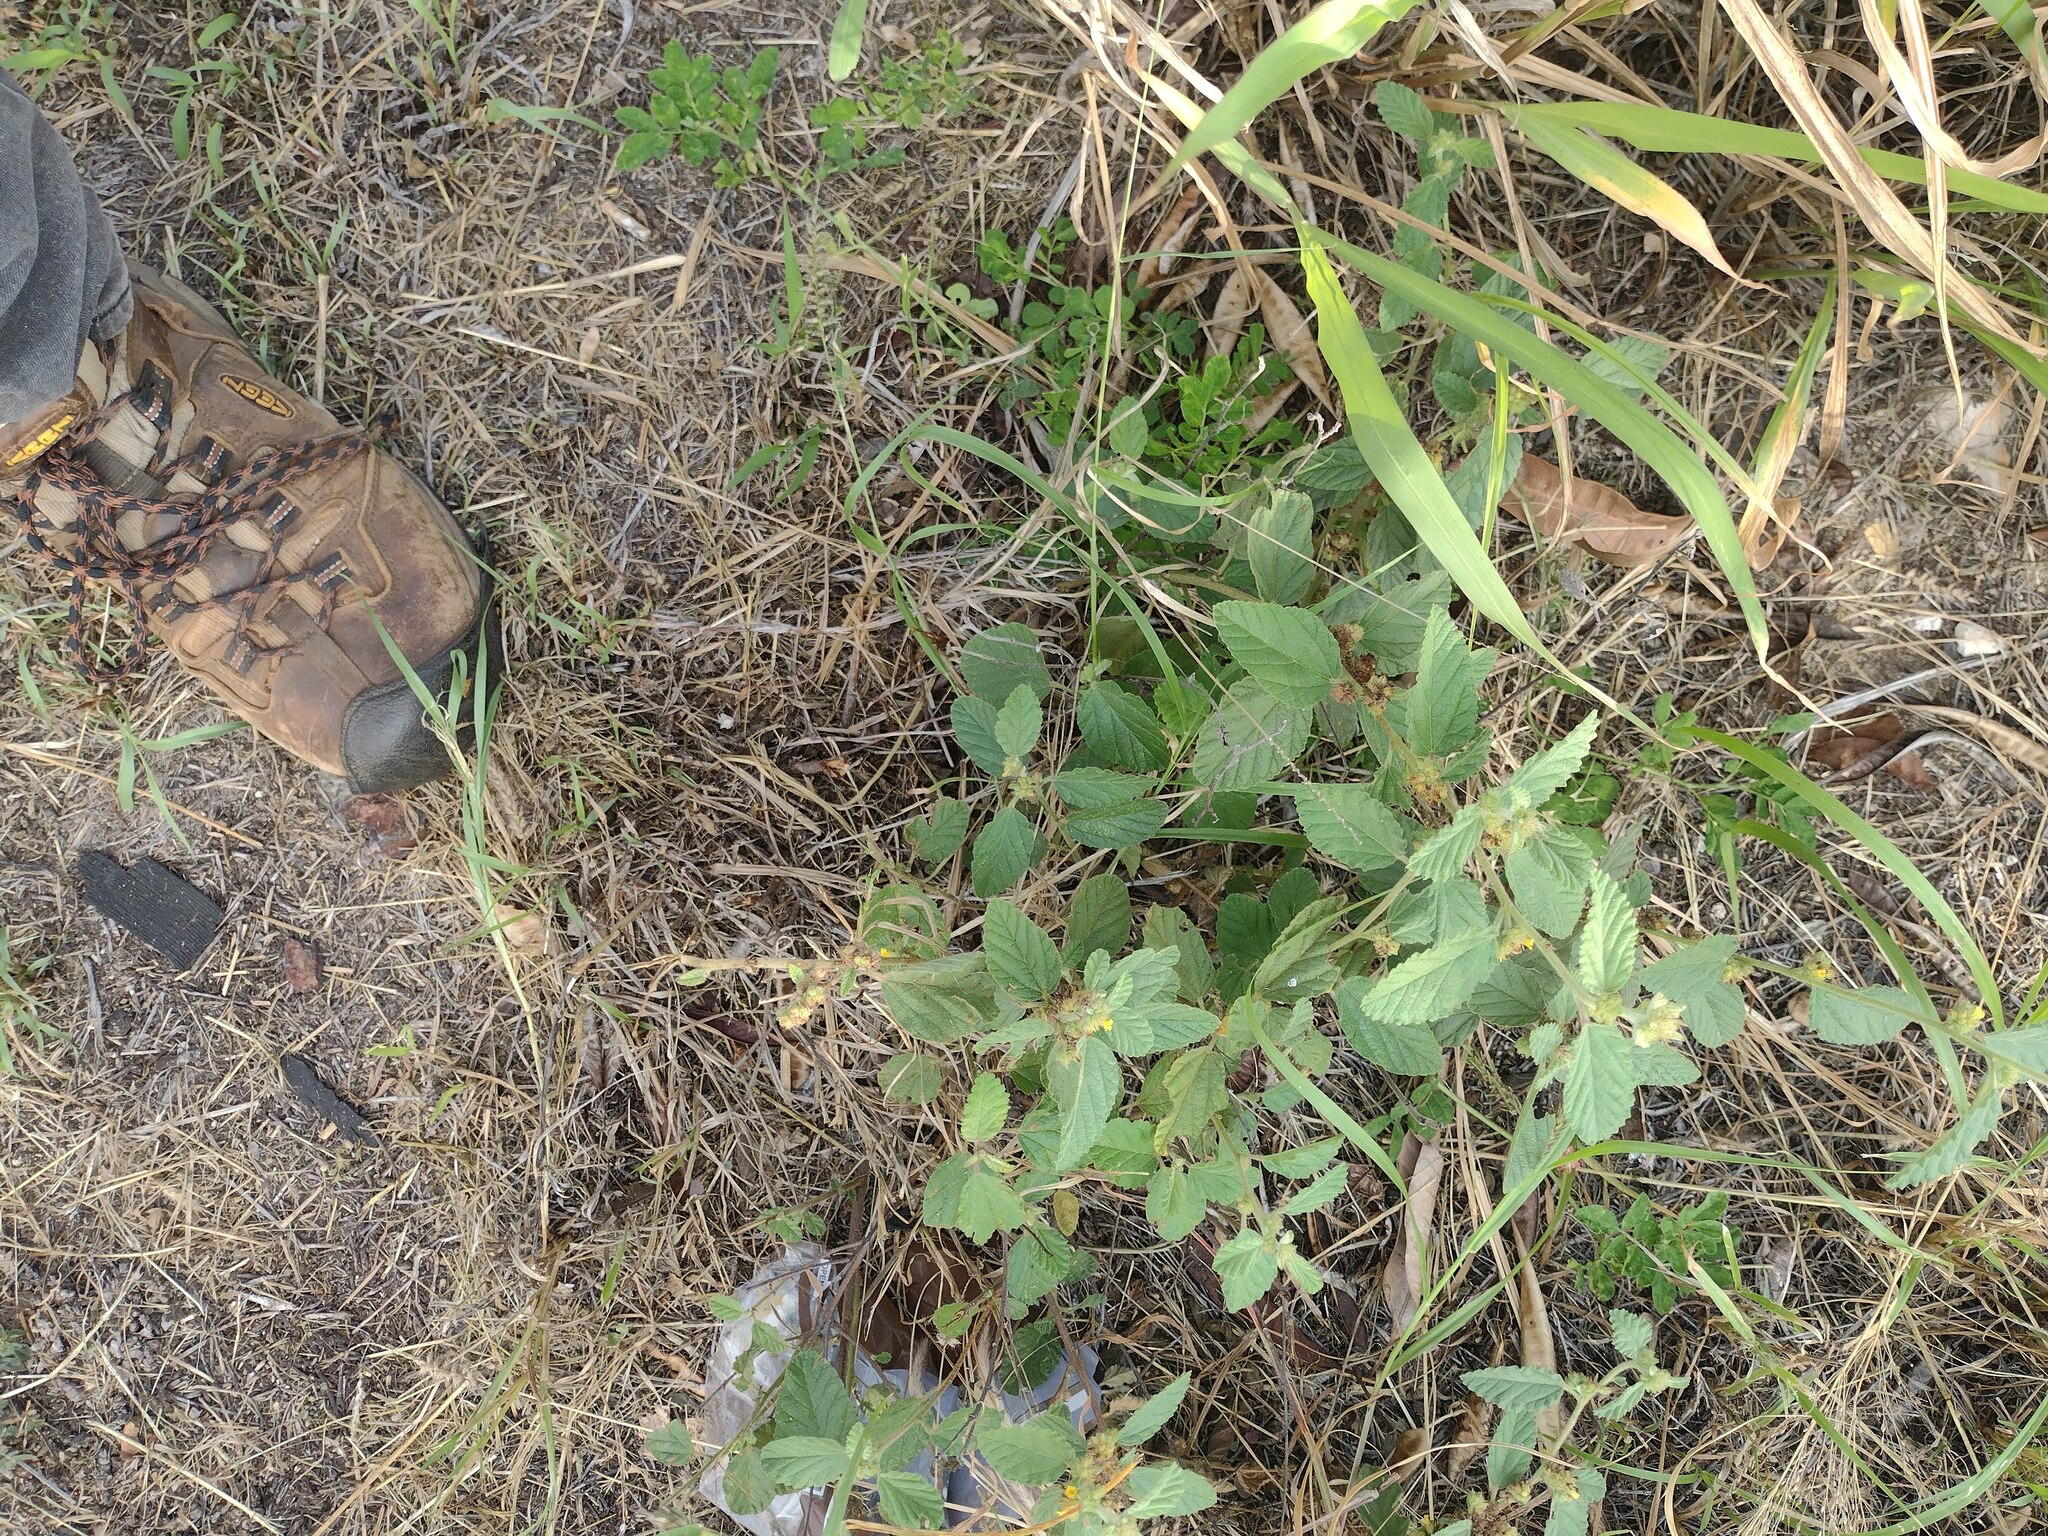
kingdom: Plantae
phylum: Tracheophyta
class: Magnoliopsida
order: Malvales
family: Malvaceae
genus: Waltheria
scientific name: Waltheria indica
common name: Leather-coat
